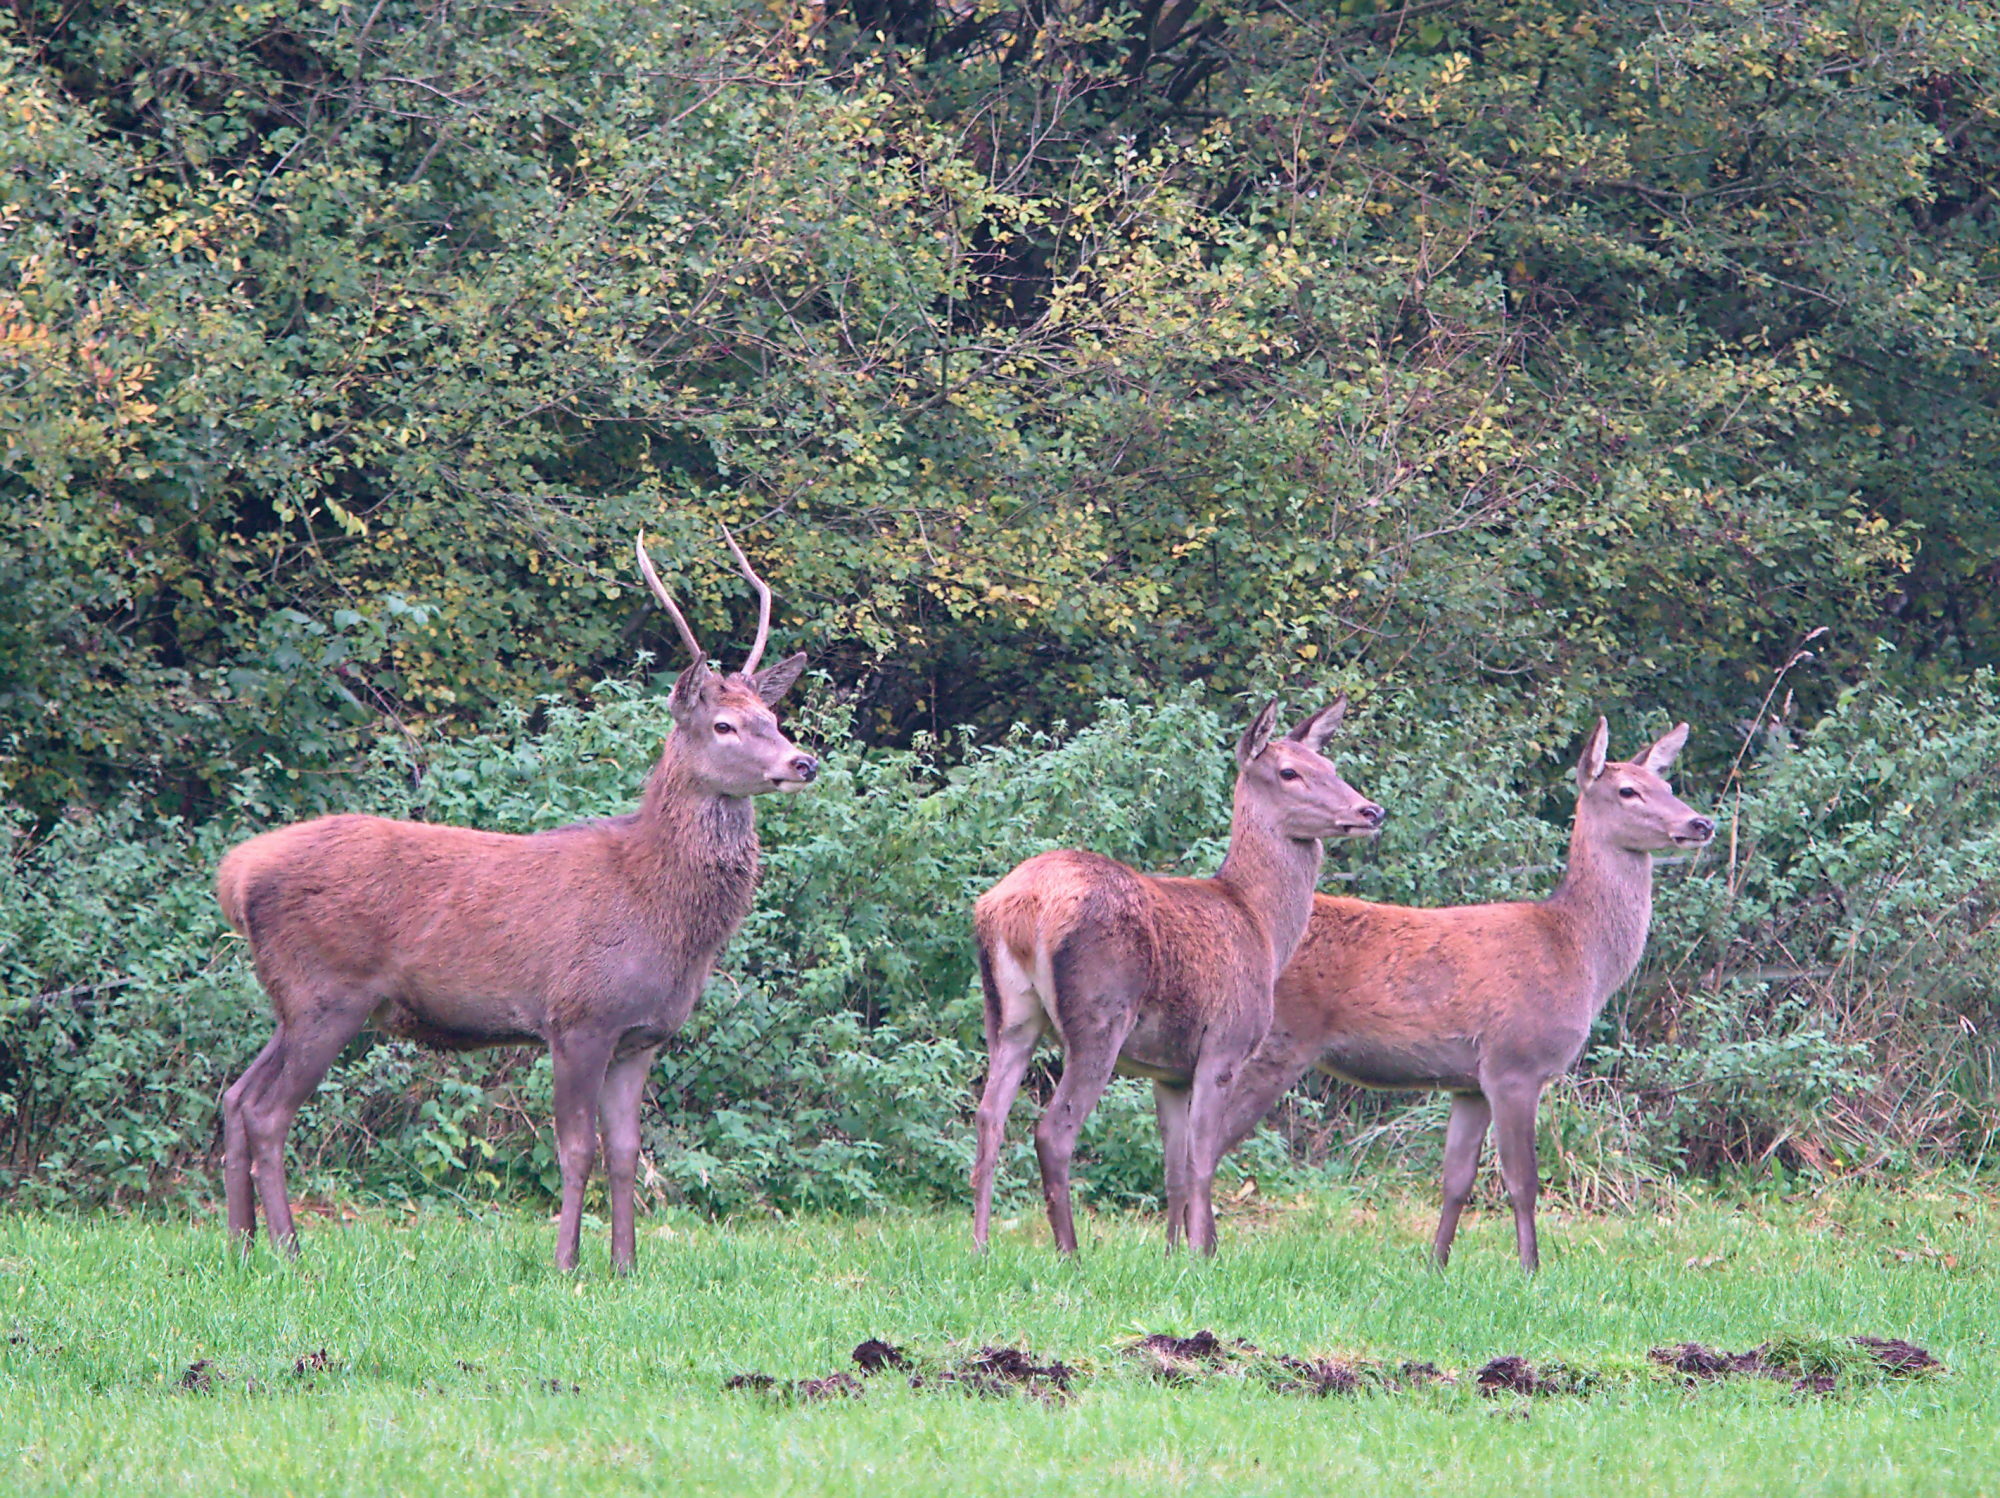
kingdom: Animalia
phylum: Chordata
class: Mammalia
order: Artiodactyla
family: Cervidae
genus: Cervus
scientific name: Cervus elaphus
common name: Red deer
